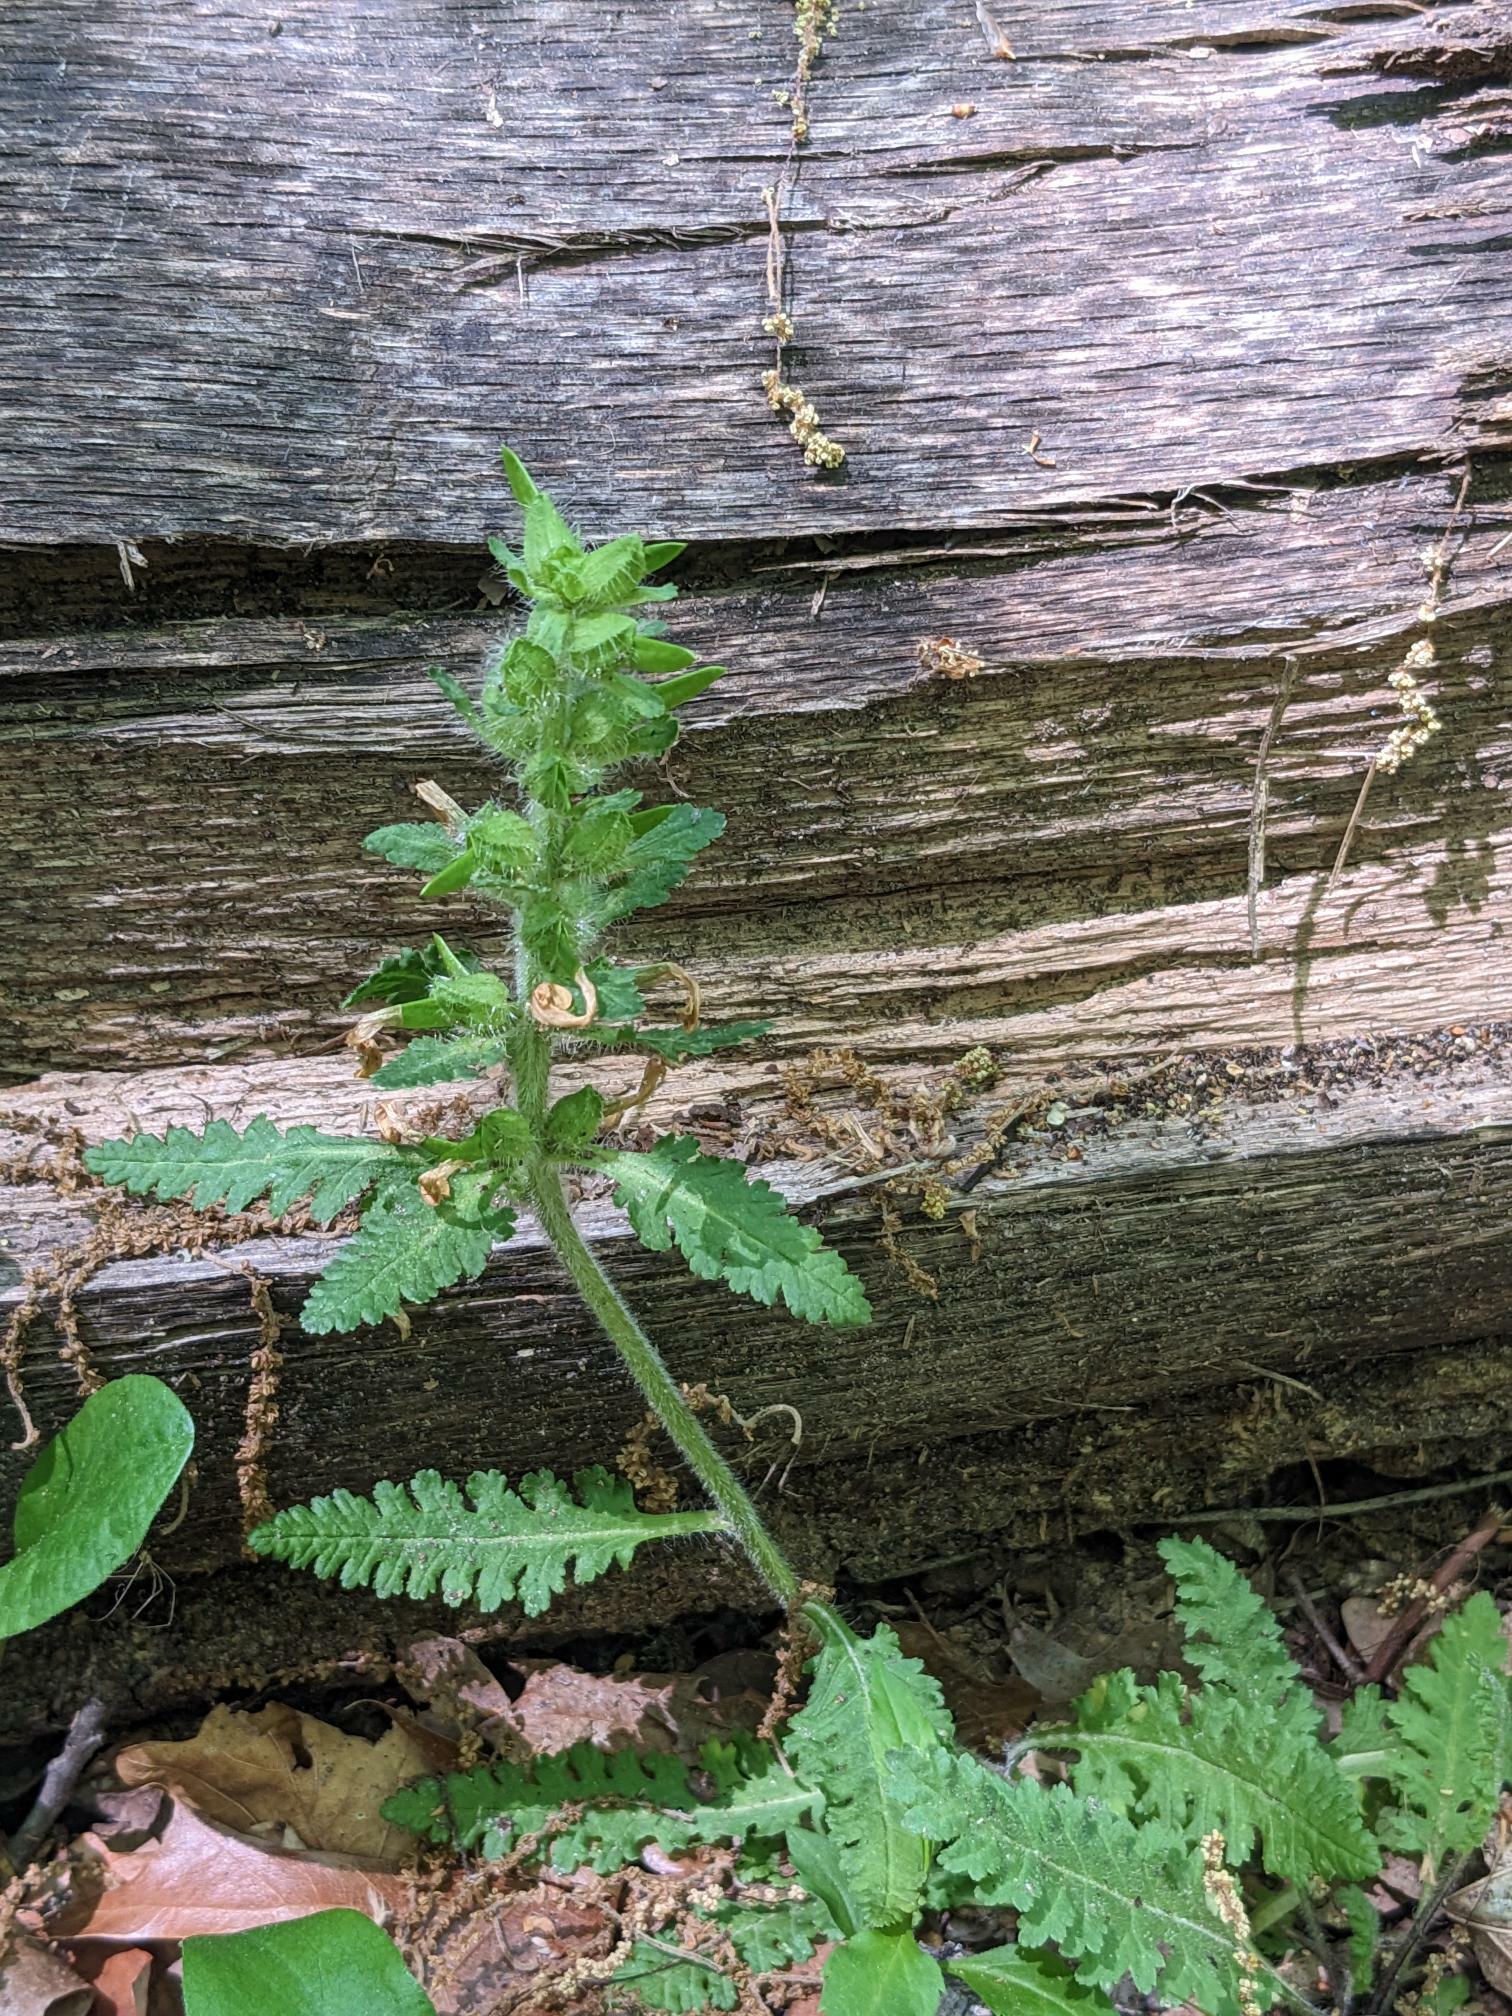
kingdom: Plantae
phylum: Tracheophyta
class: Magnoliopsida
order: Lamiales
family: Orobanchaceae
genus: Pedicularis
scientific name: Pedicularis canadensis
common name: Early lousewort
